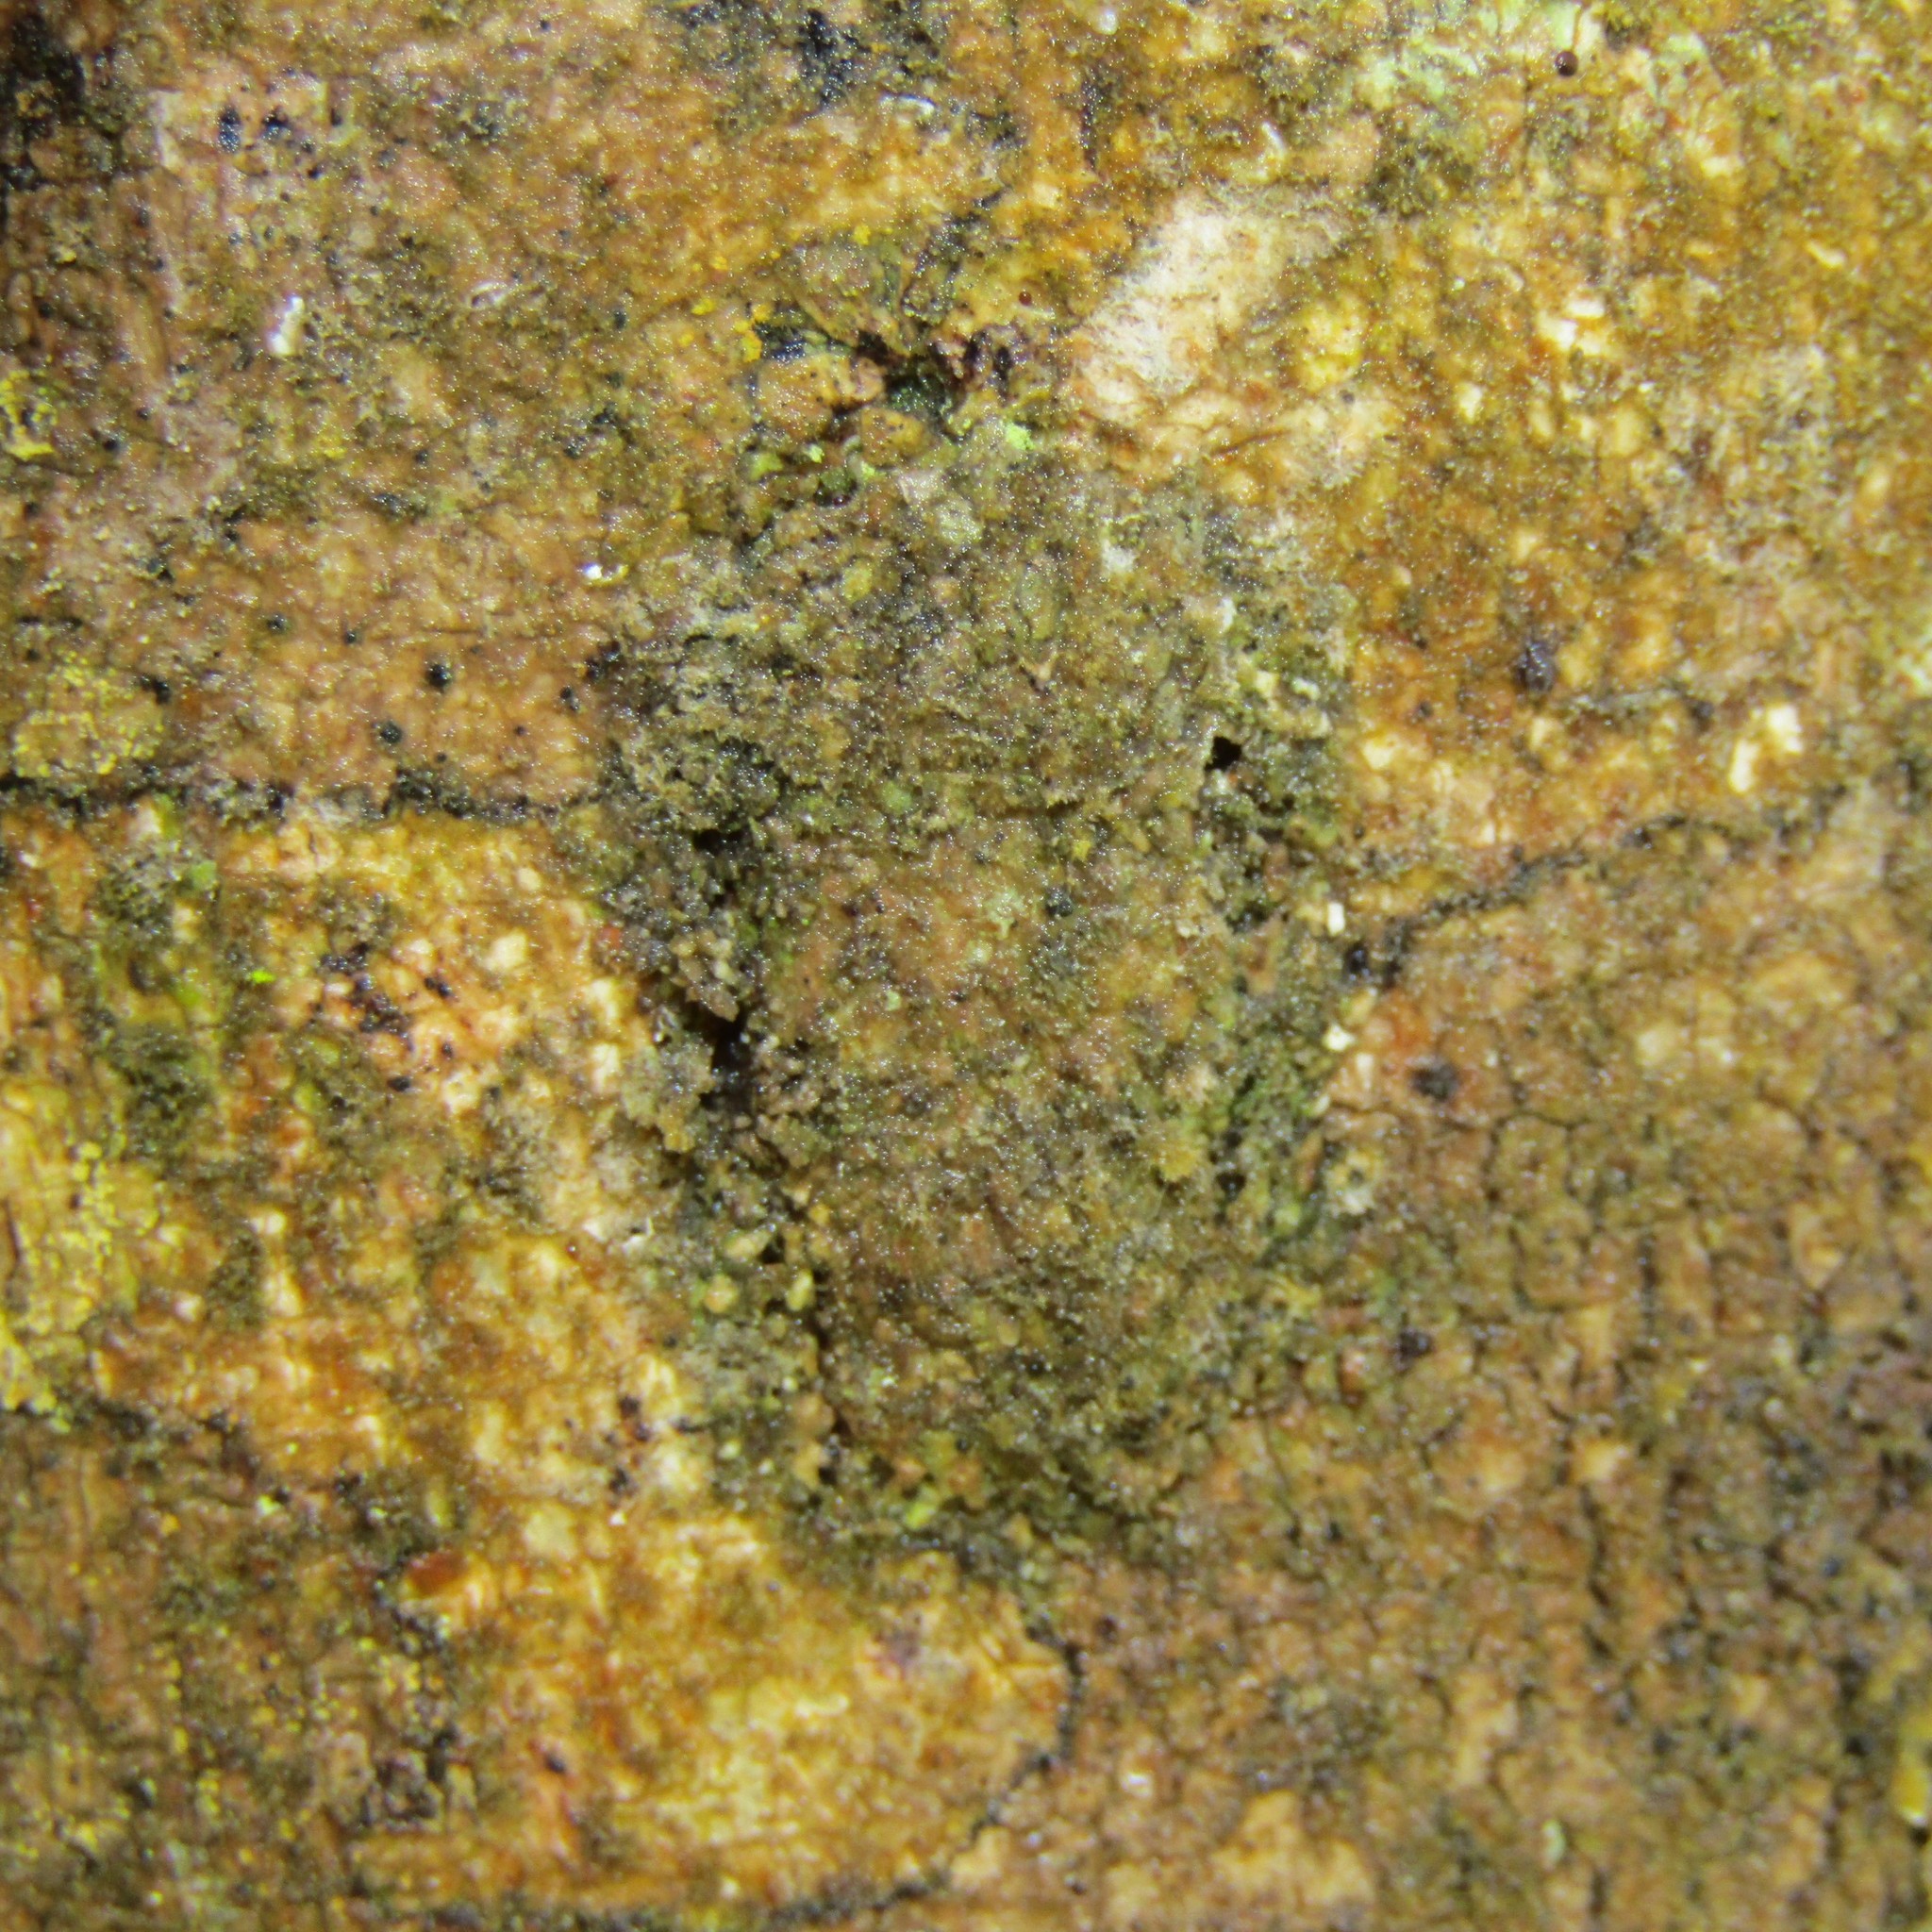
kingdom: Animalia
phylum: Arthropoda
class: Insecta
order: Lepidoptera
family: Hepialidae
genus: Aenetus
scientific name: Aenetus virescens
